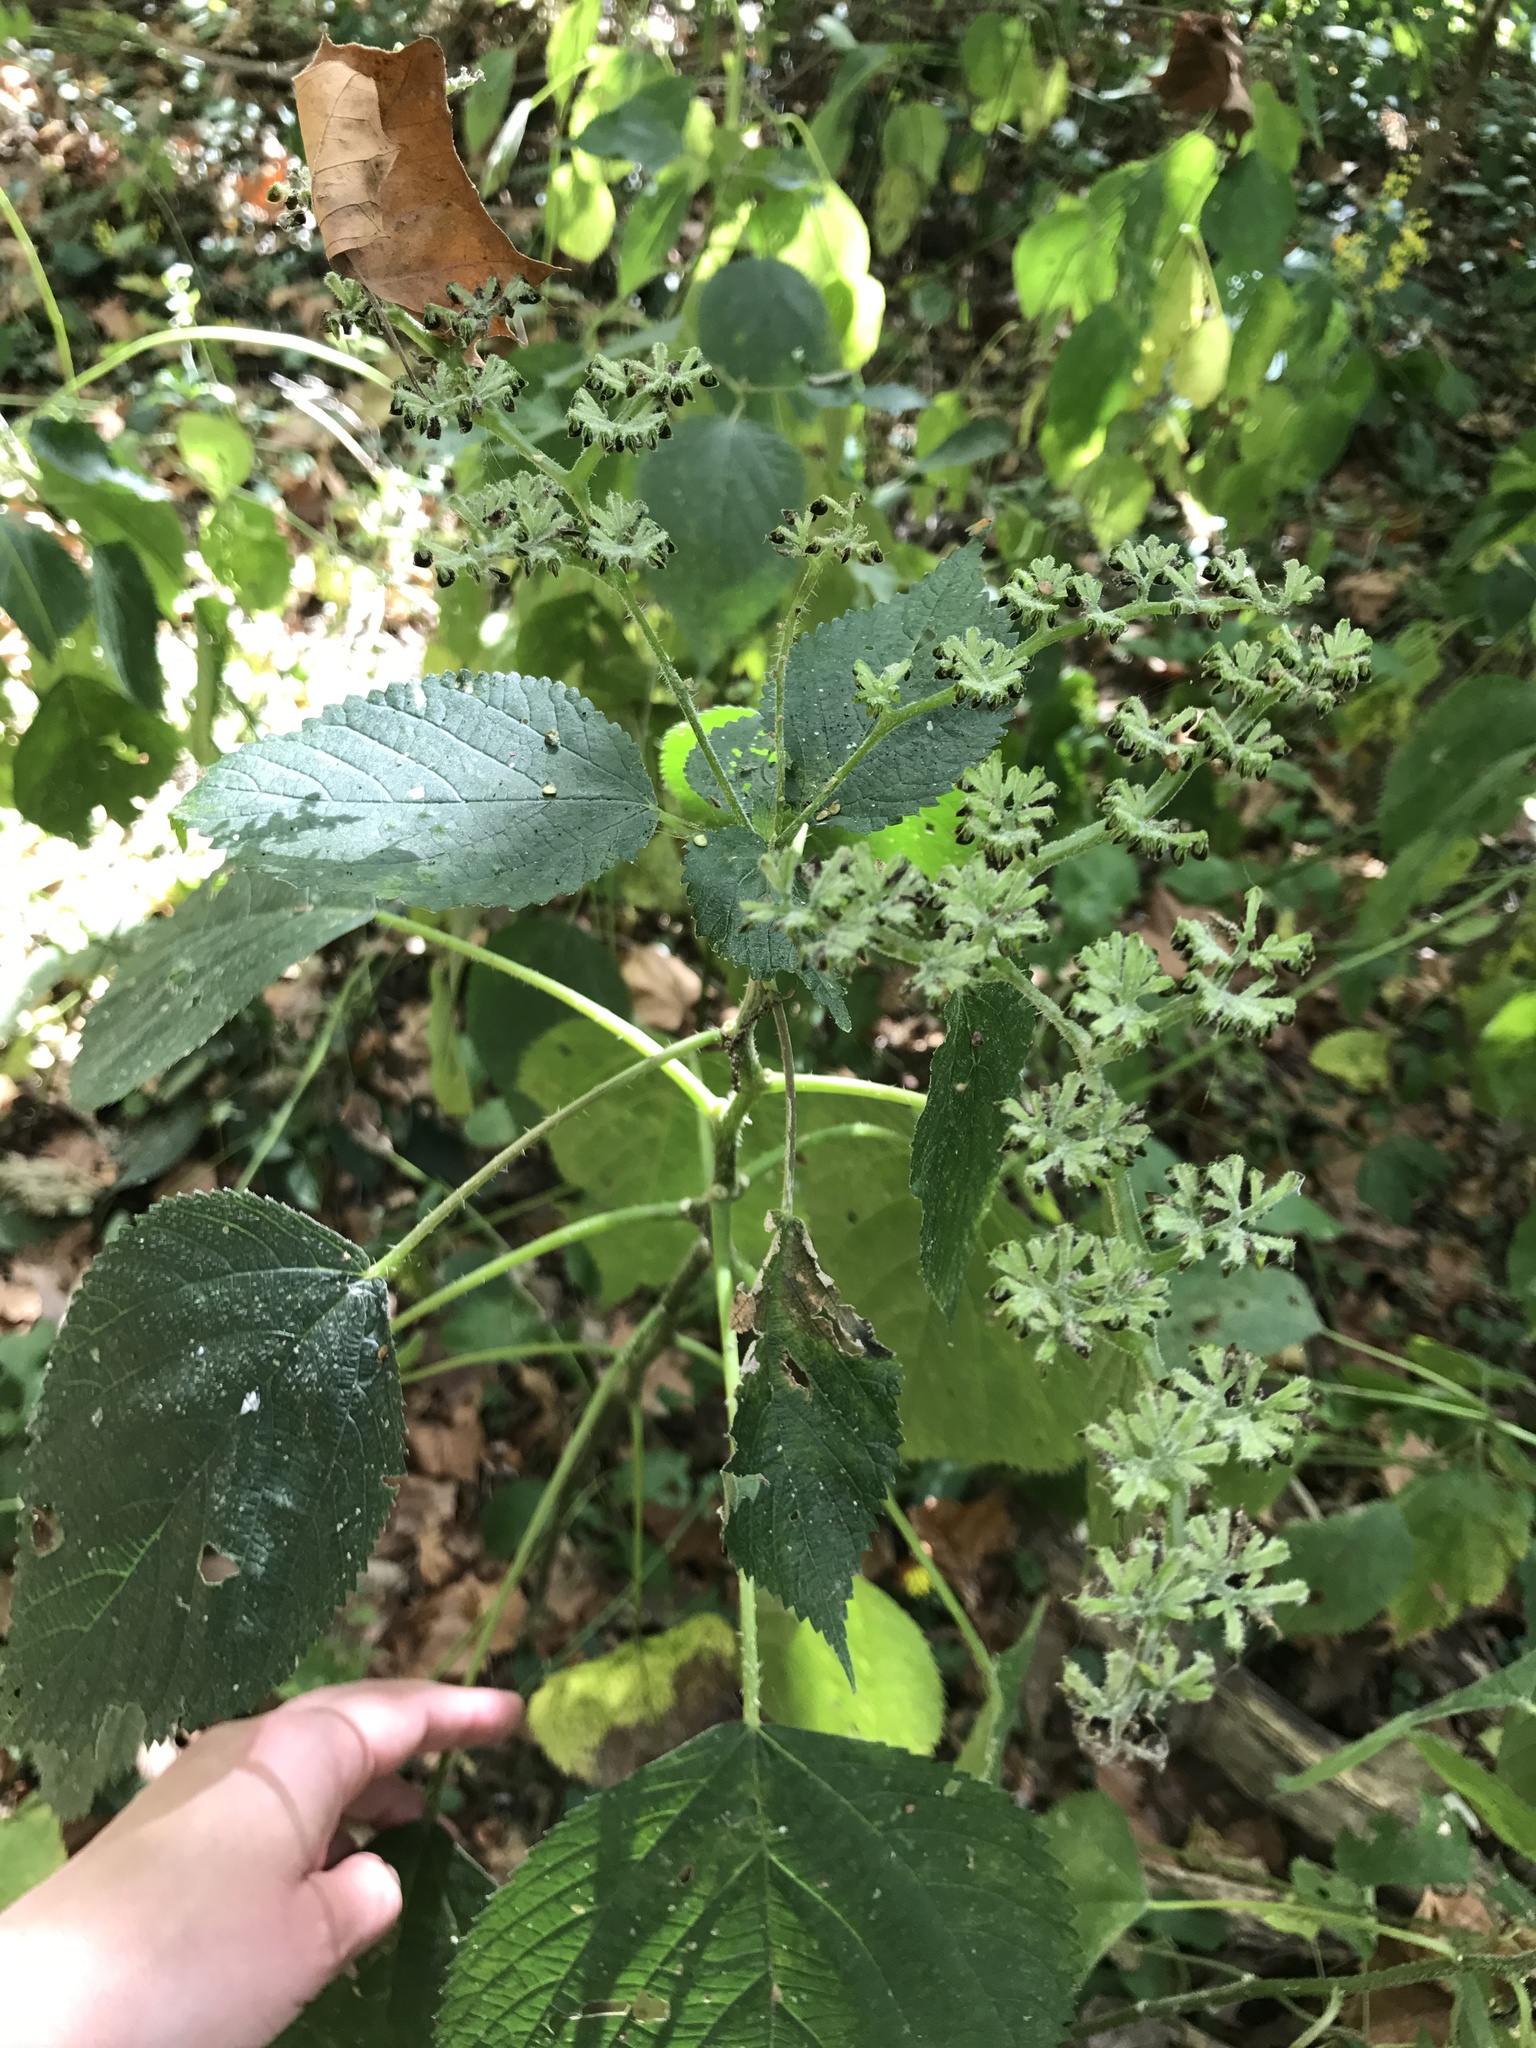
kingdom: Plantae
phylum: Tracheophyta
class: Magnoliopsida
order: Rosales
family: Urticaceae
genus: Laportea
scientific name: Laportea canadensis
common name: Canada nettle
